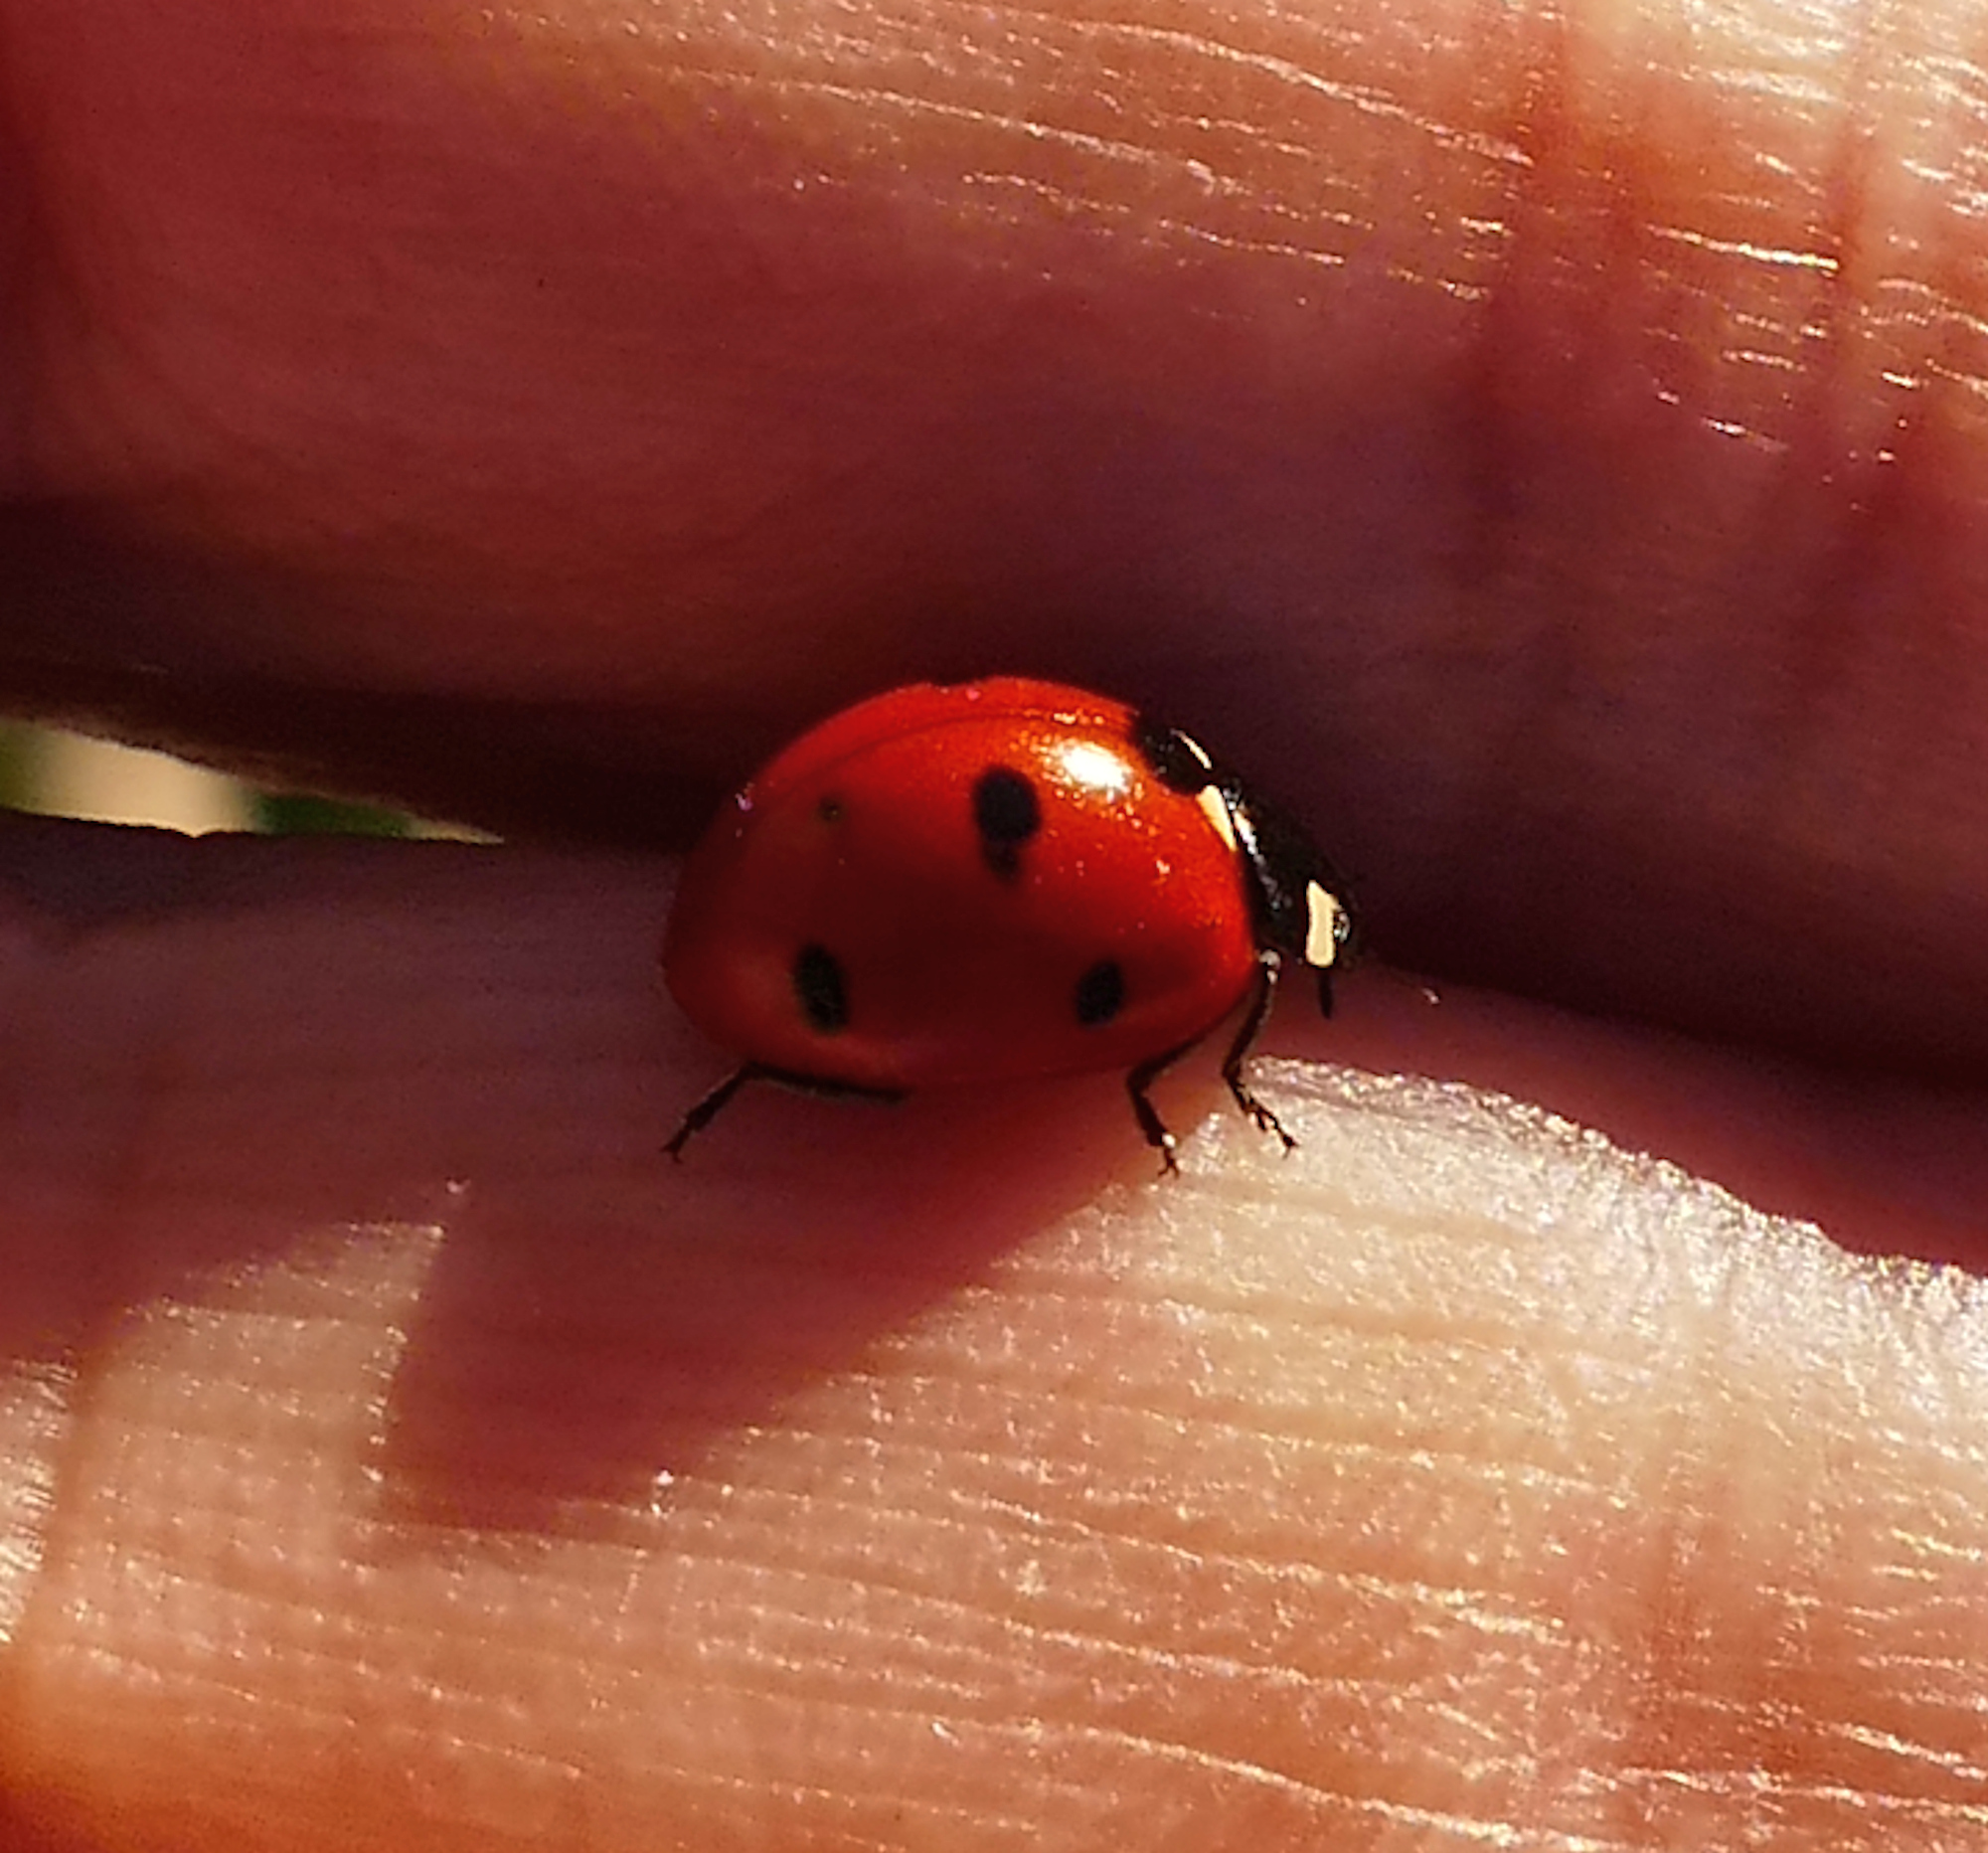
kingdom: Animalia
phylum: Arthropoda
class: Insecta
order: Coleoptera
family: Coccinellidae
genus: Coccinella
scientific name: Coccinella septempunctata
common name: Sevenspotted lady beetle
